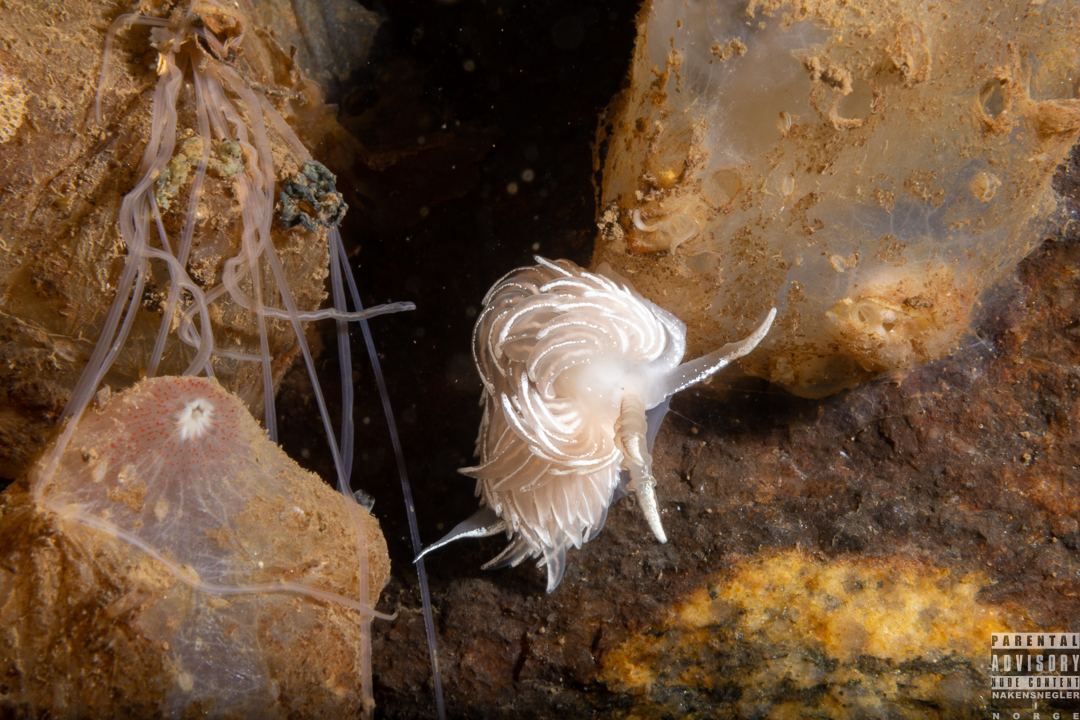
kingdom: Animalia
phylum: Mollusca
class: Gastropoda
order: Nudibranchia
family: Facelinidae
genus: Favorinus
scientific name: Favorinus blianus
